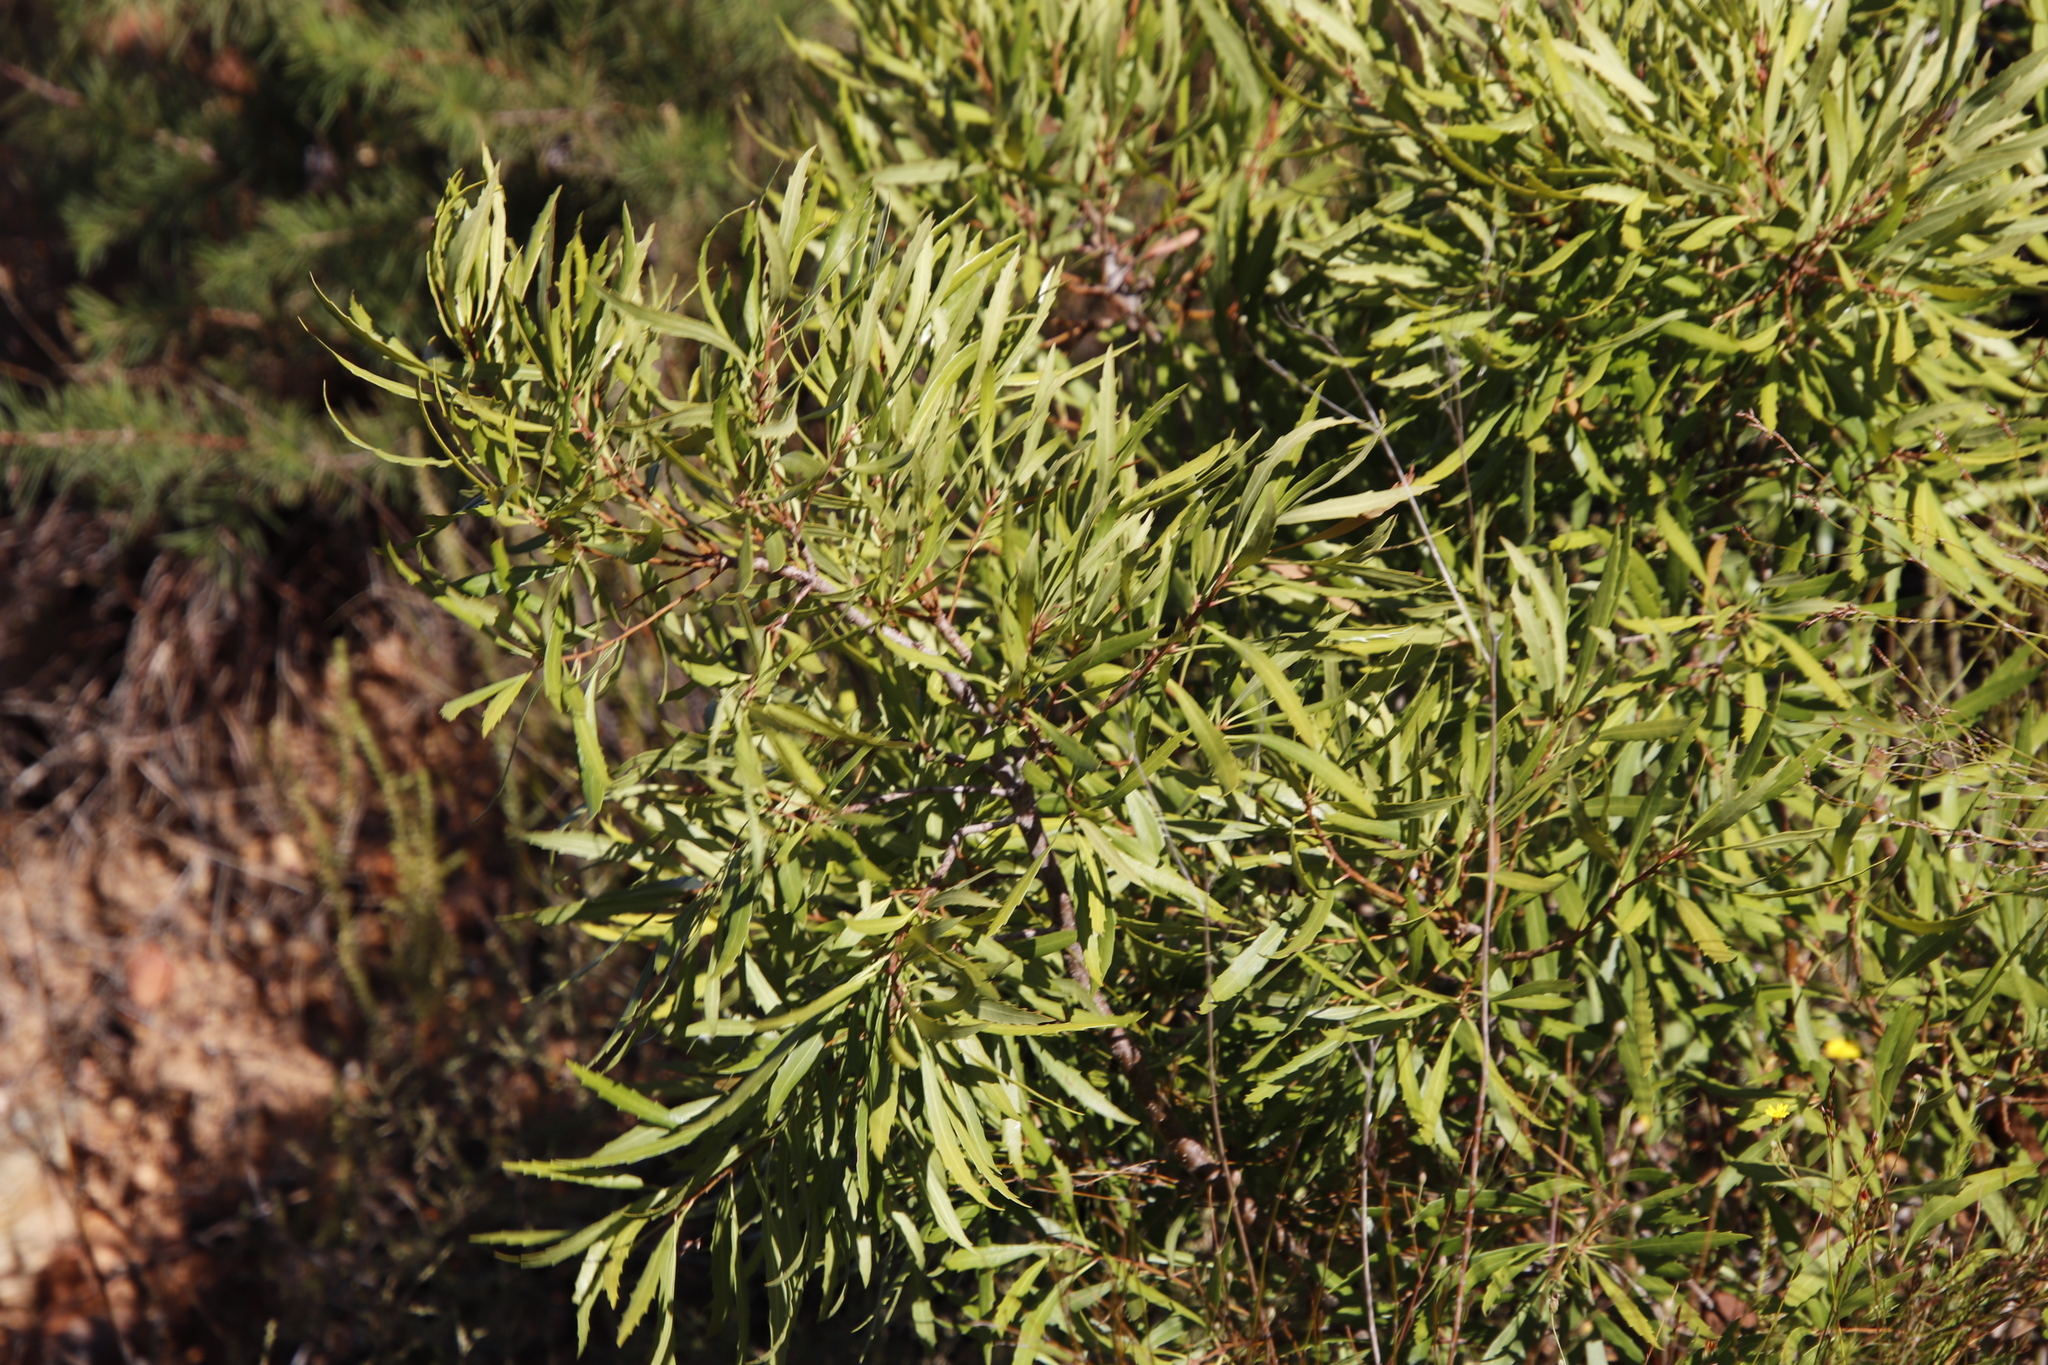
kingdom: Plantae
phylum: Tracheophyta
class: Magnoliopsida
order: Fagales
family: Myricaceae
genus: Morella
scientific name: Morella serrata
